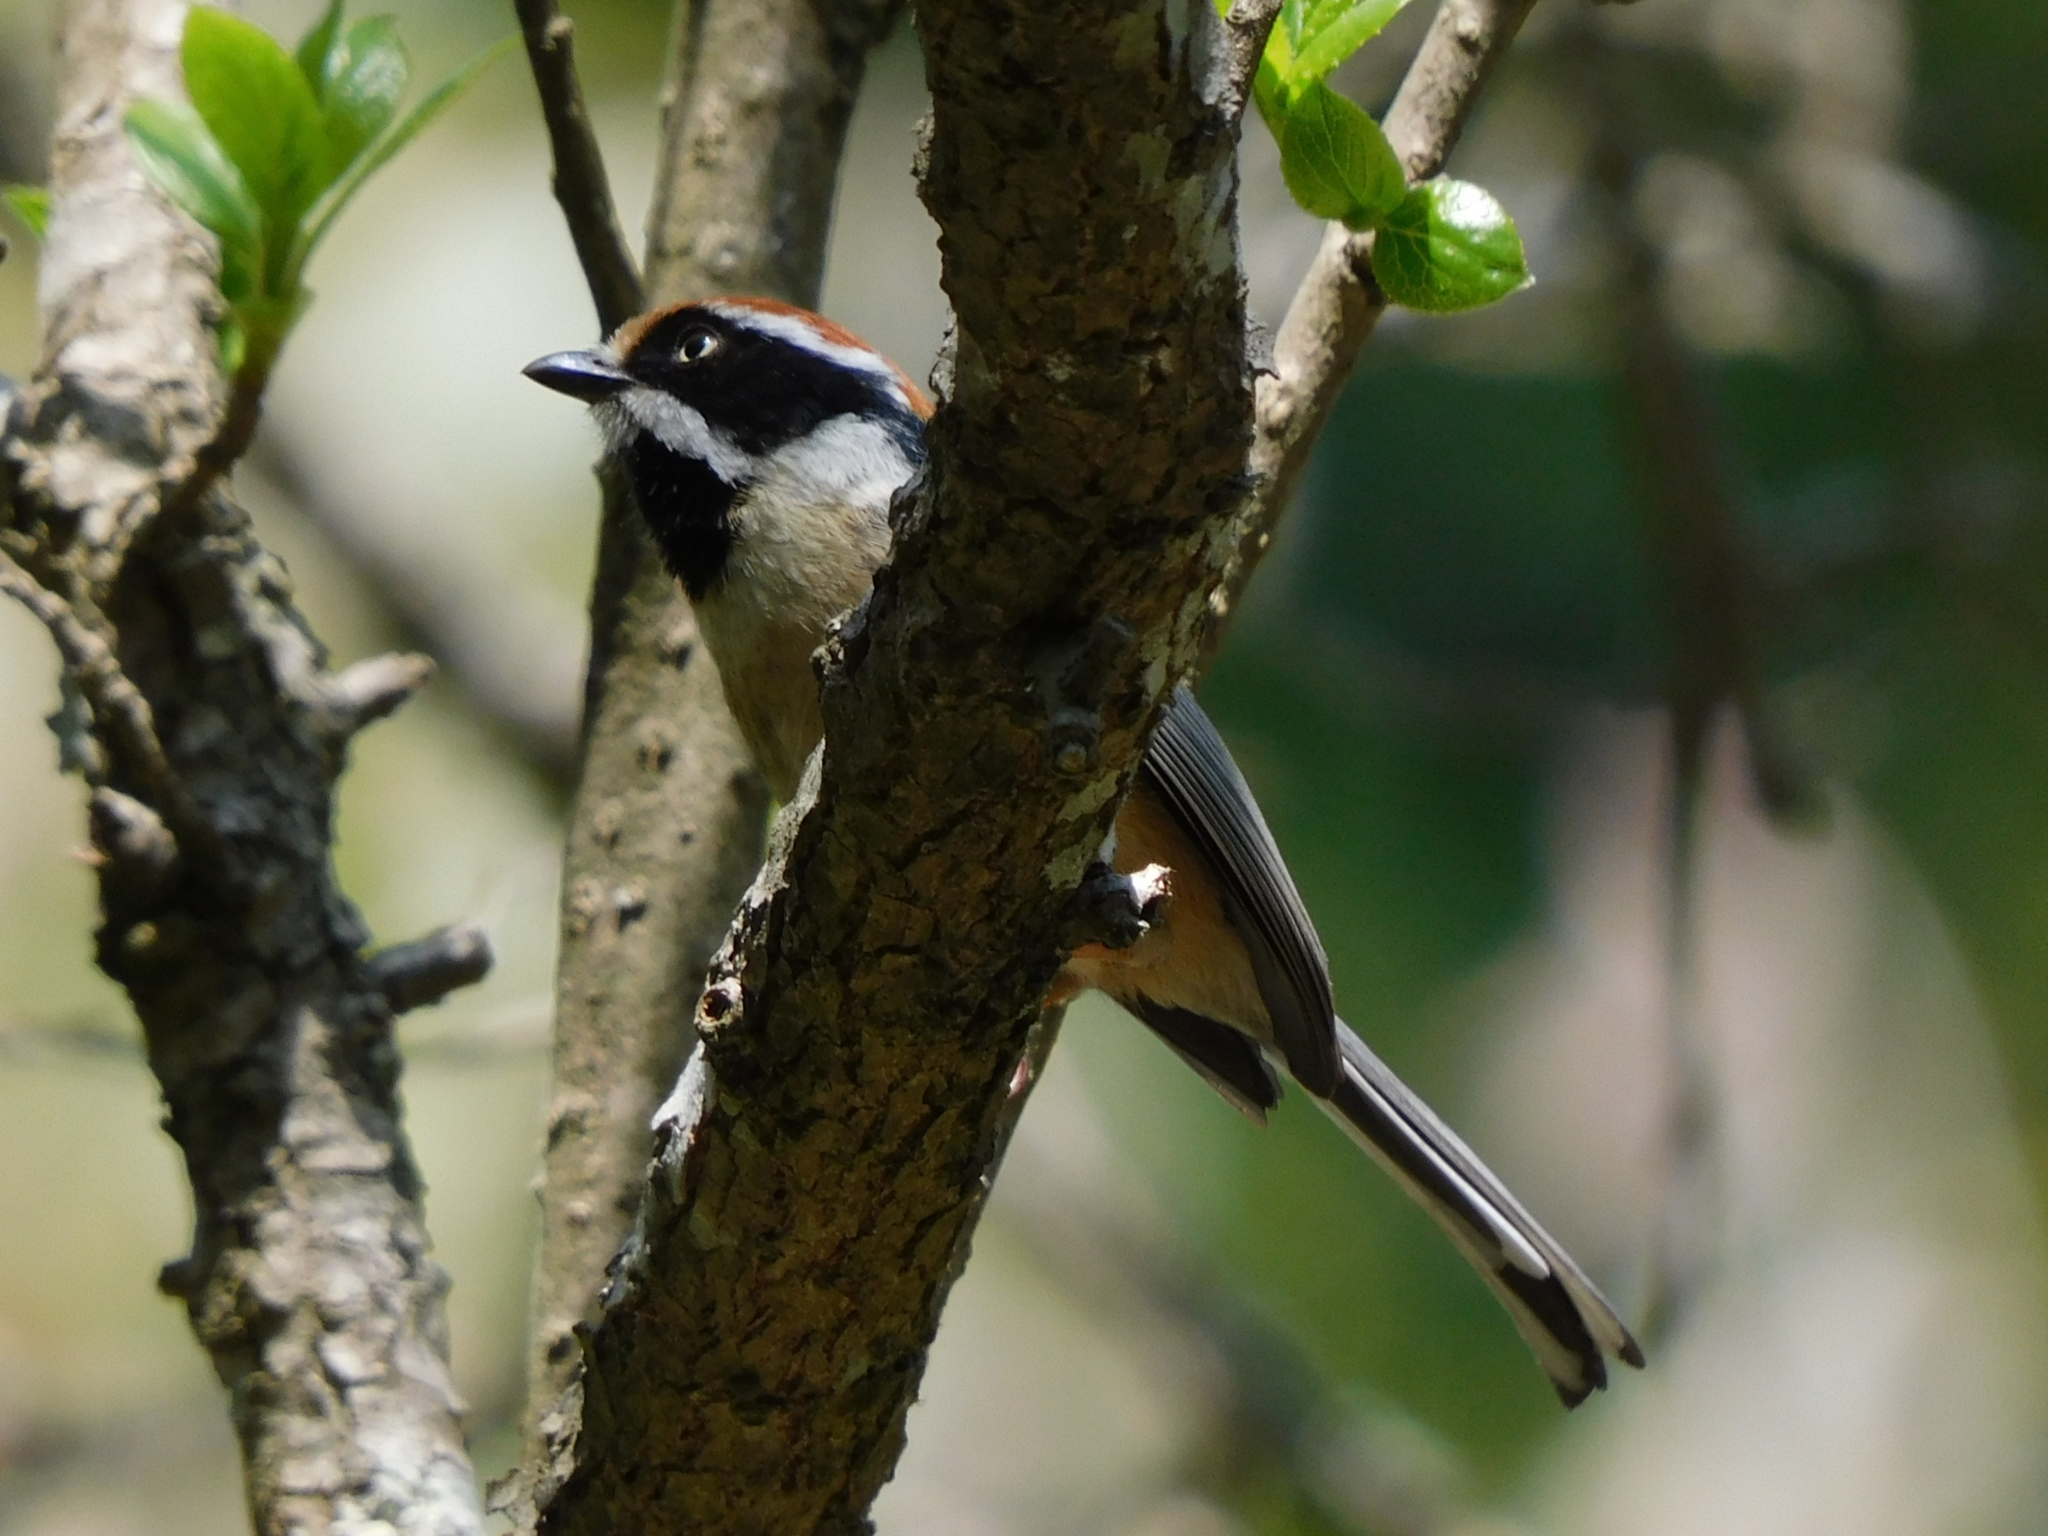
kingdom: Animalia
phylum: Chordata
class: Aves
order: Passeriformes
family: Aegithalidae
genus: Aegithalos
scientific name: Aegithalos concinnus
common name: Black-throated bushtit
